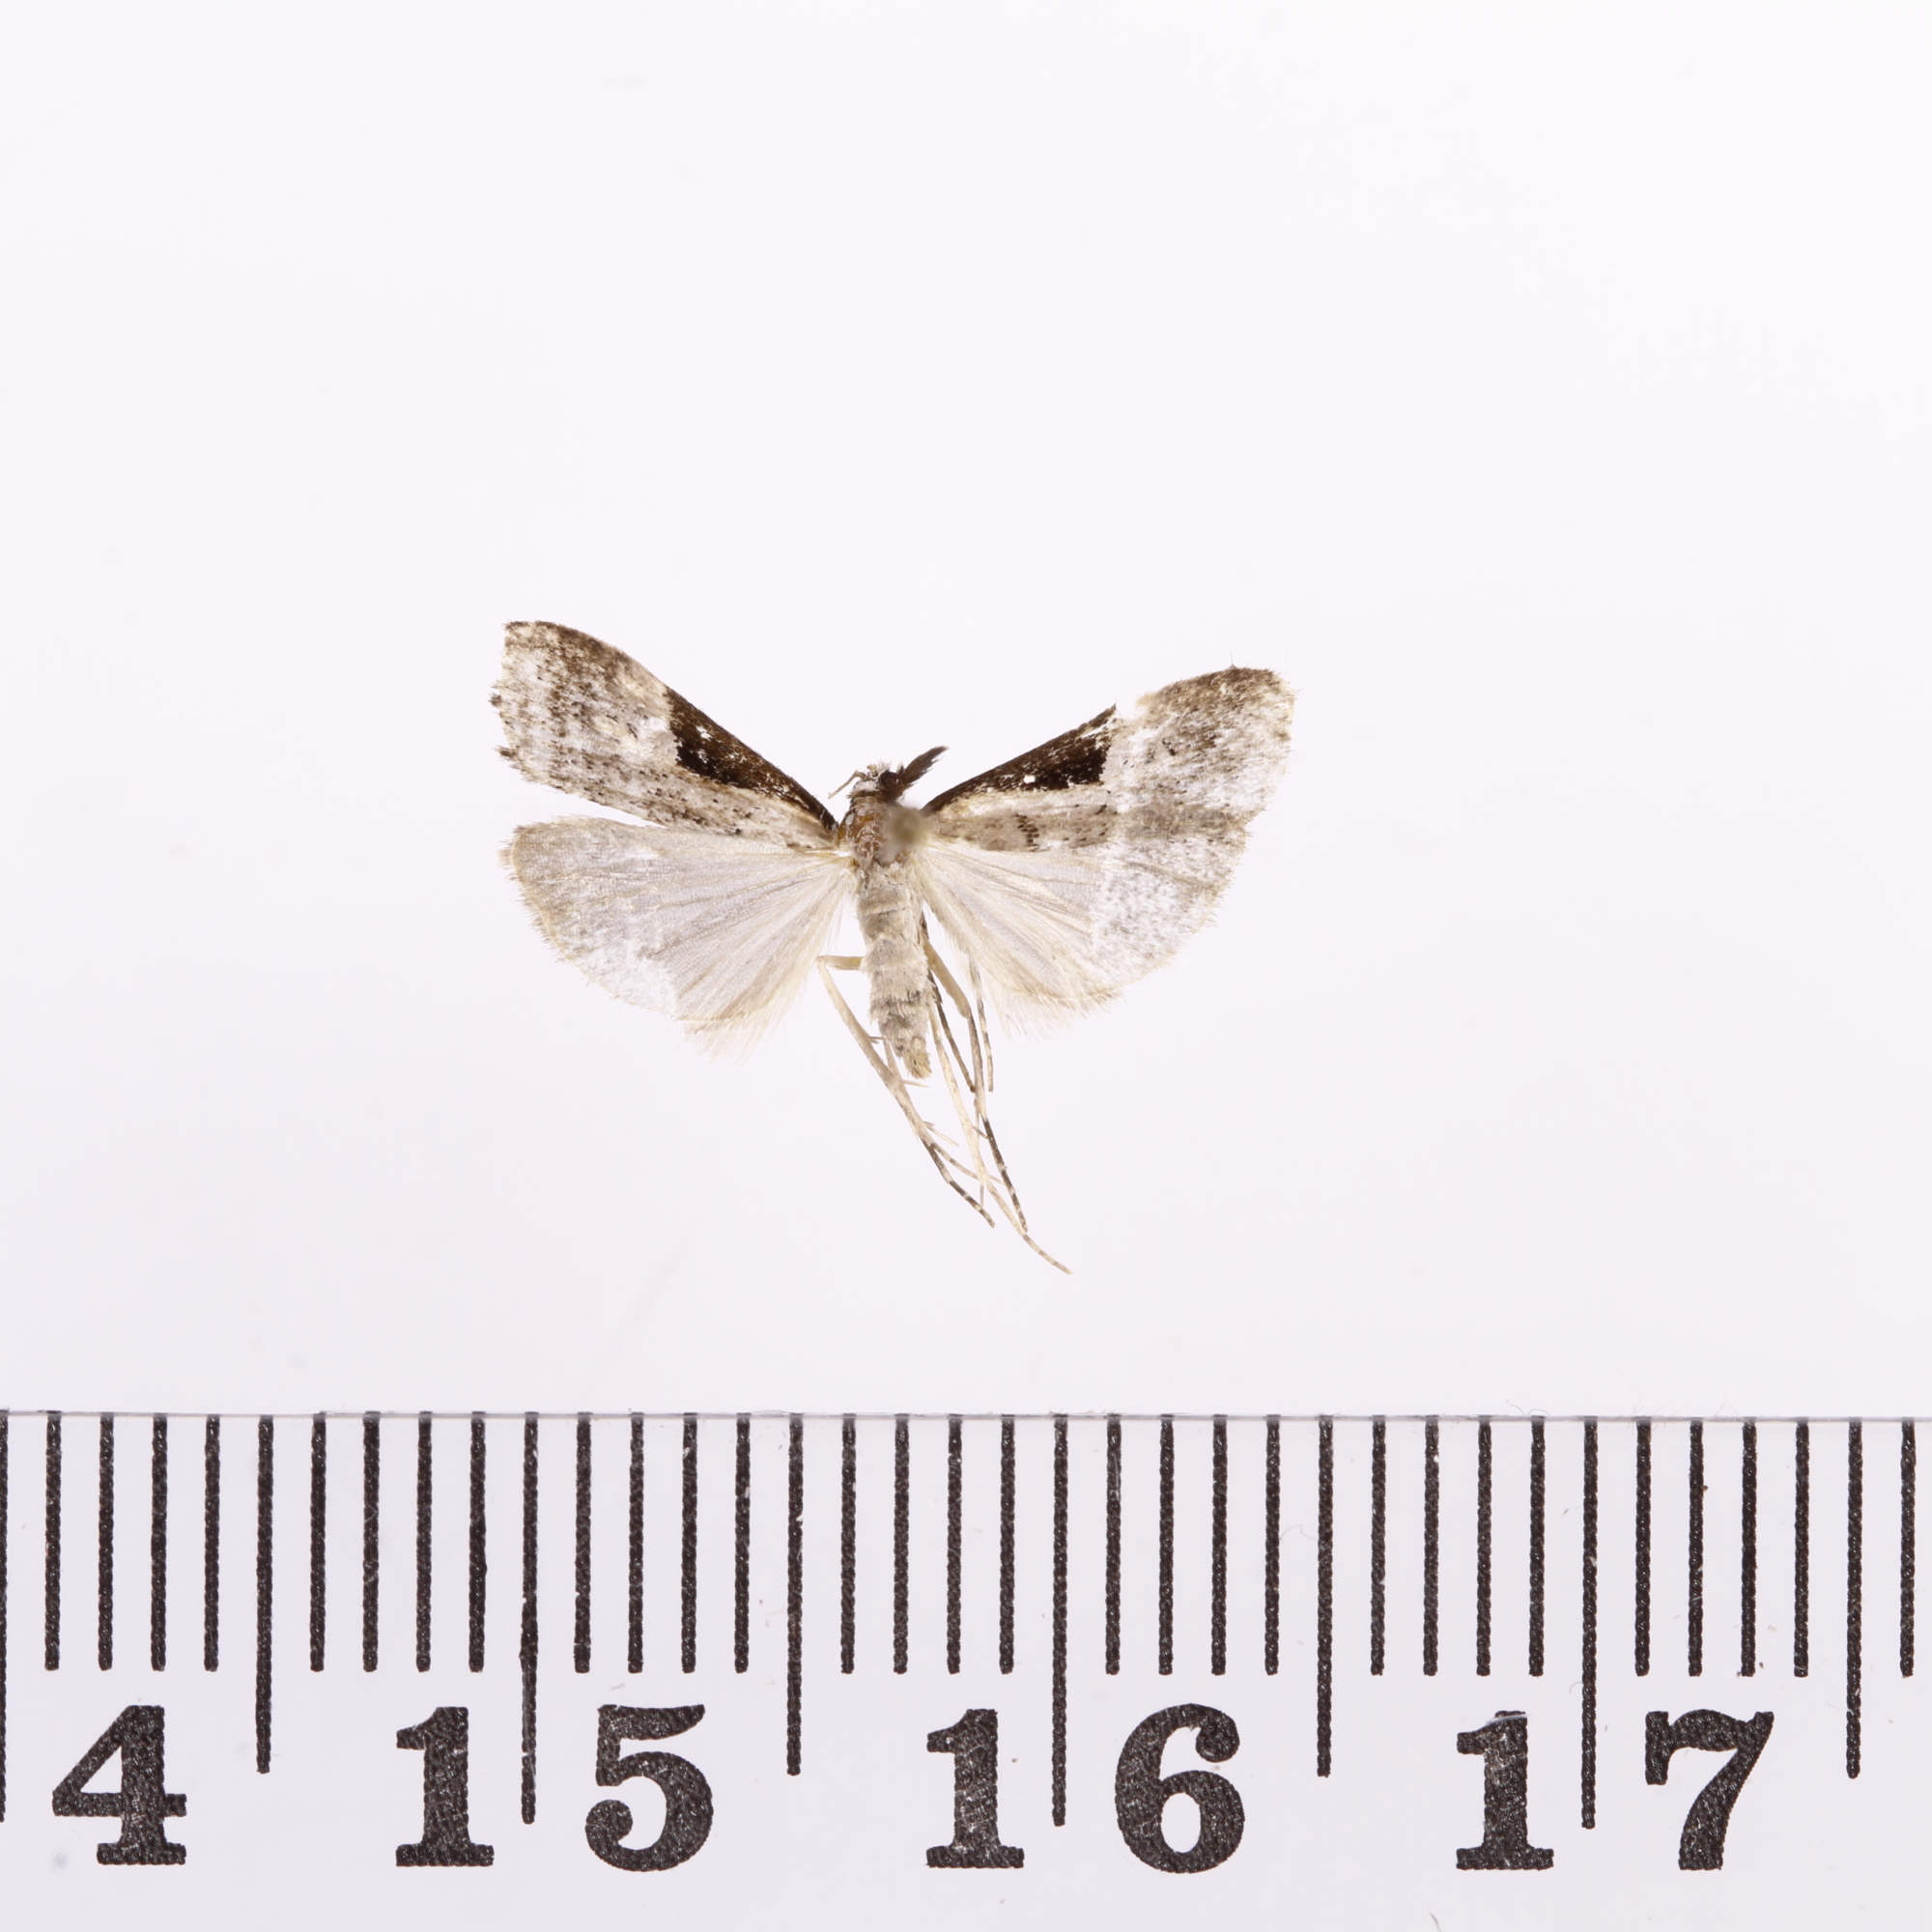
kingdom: Animalia
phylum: Arthropoda
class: Insecta
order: Lepidoptera
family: Crambidae
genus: Eudonia
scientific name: Eudonia pongalis
